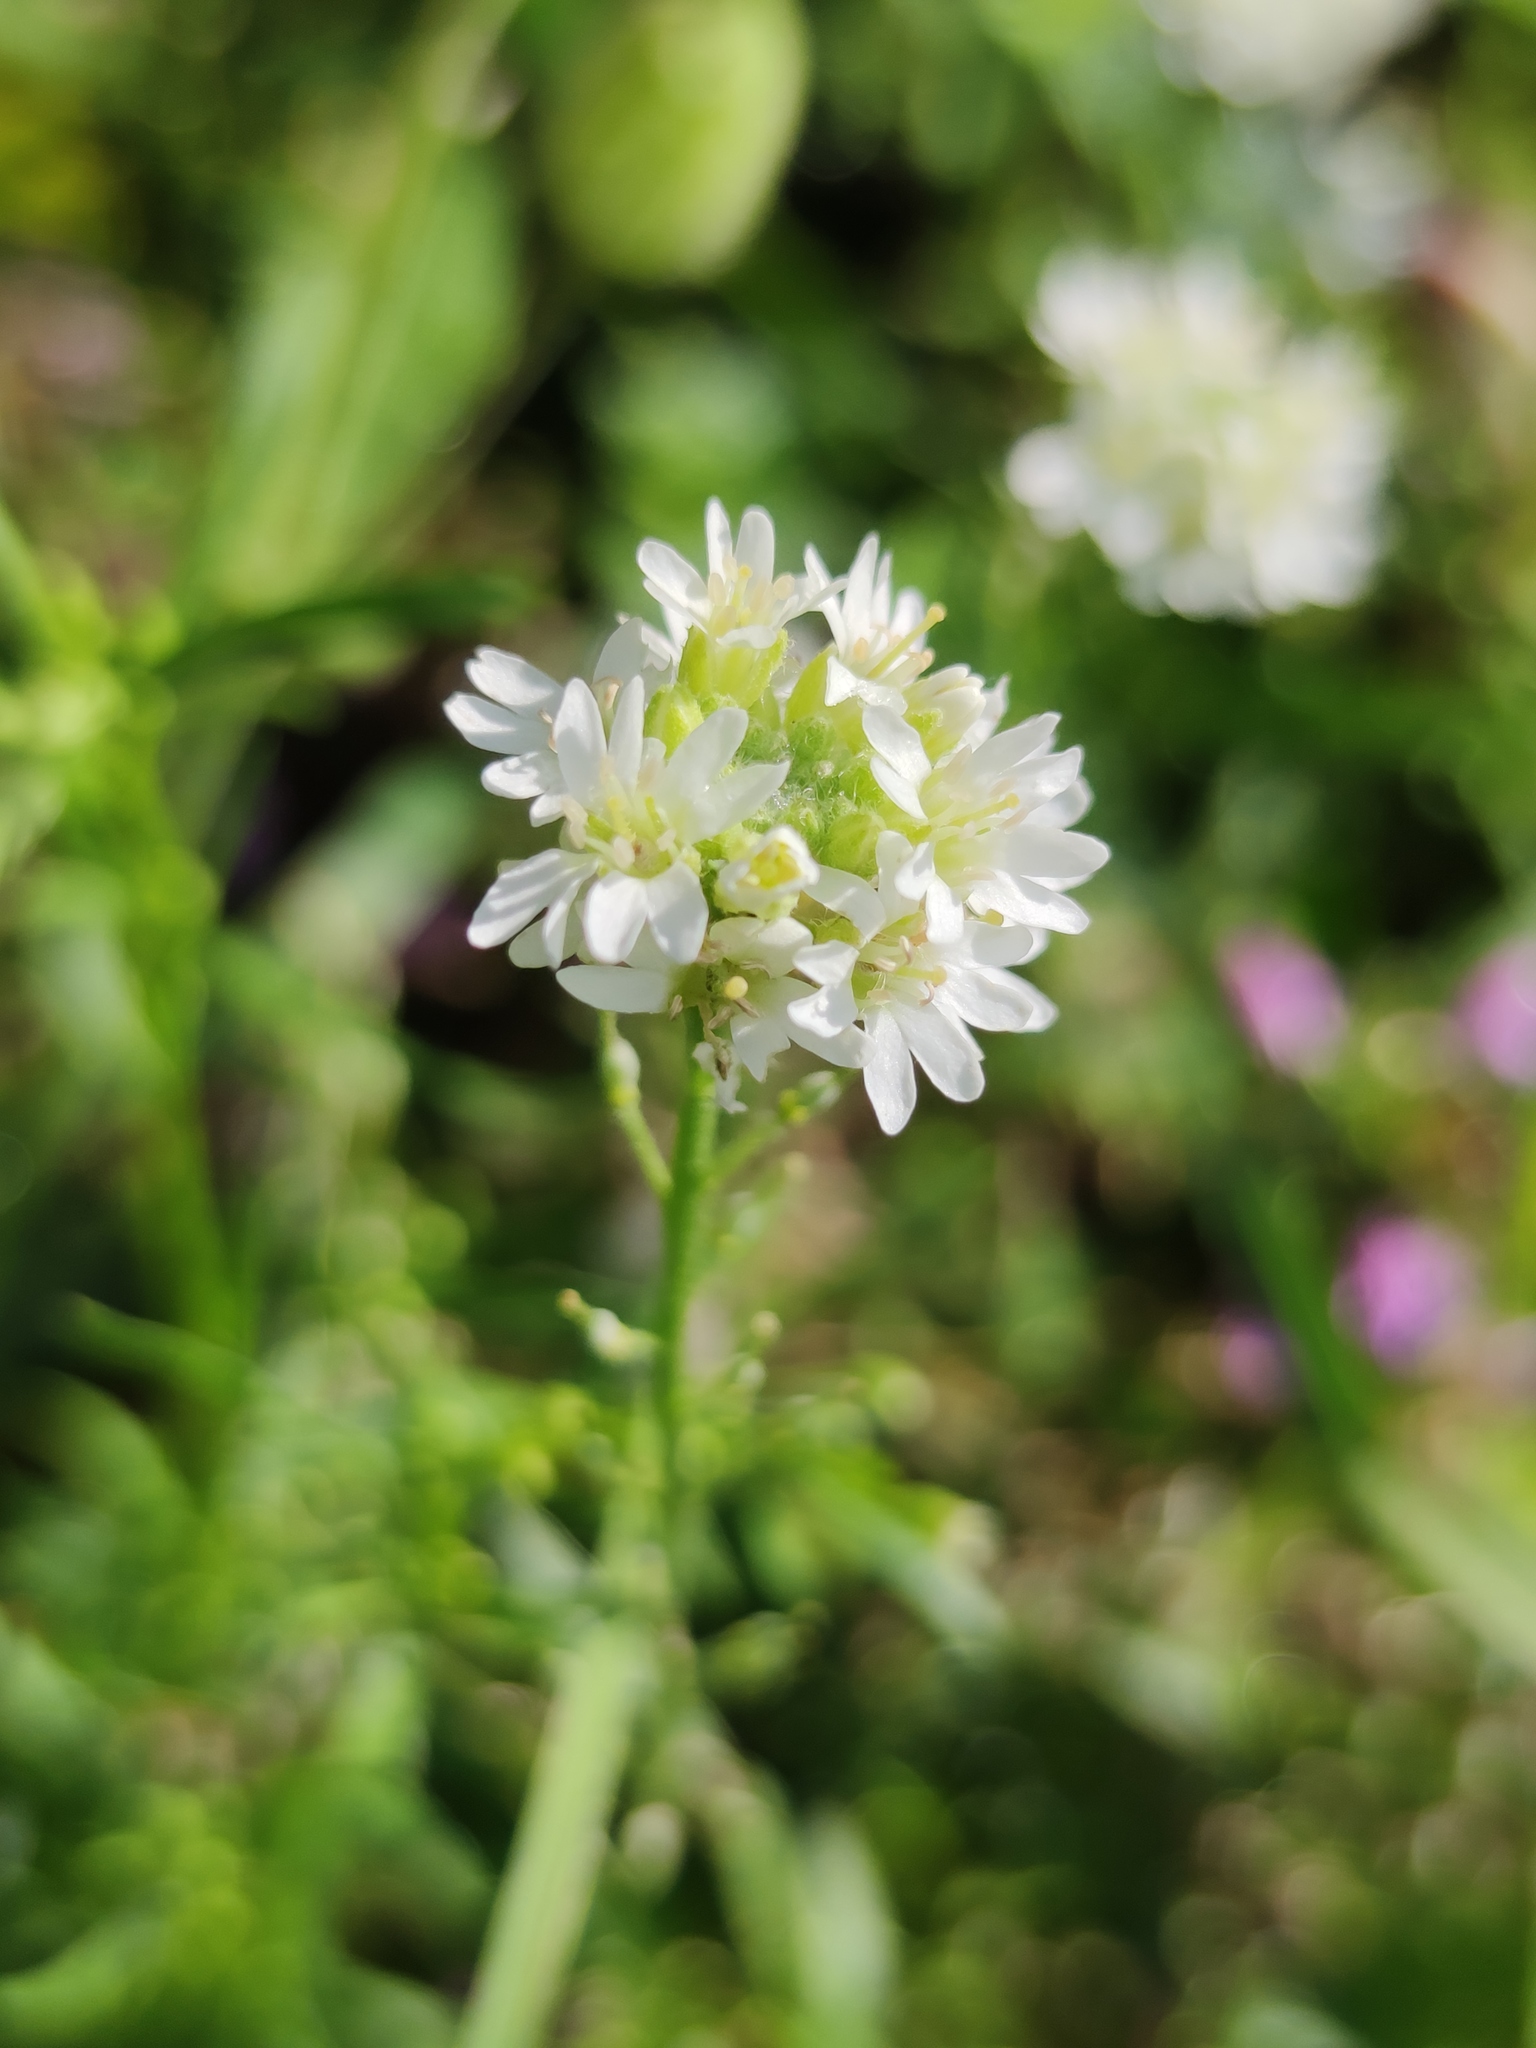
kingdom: Plantae
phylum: Tracheophyta
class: Magnoliopsida
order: Brassicales
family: Brassicaceae
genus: Berteroa
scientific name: Berteroa incana
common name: Hoary alison
